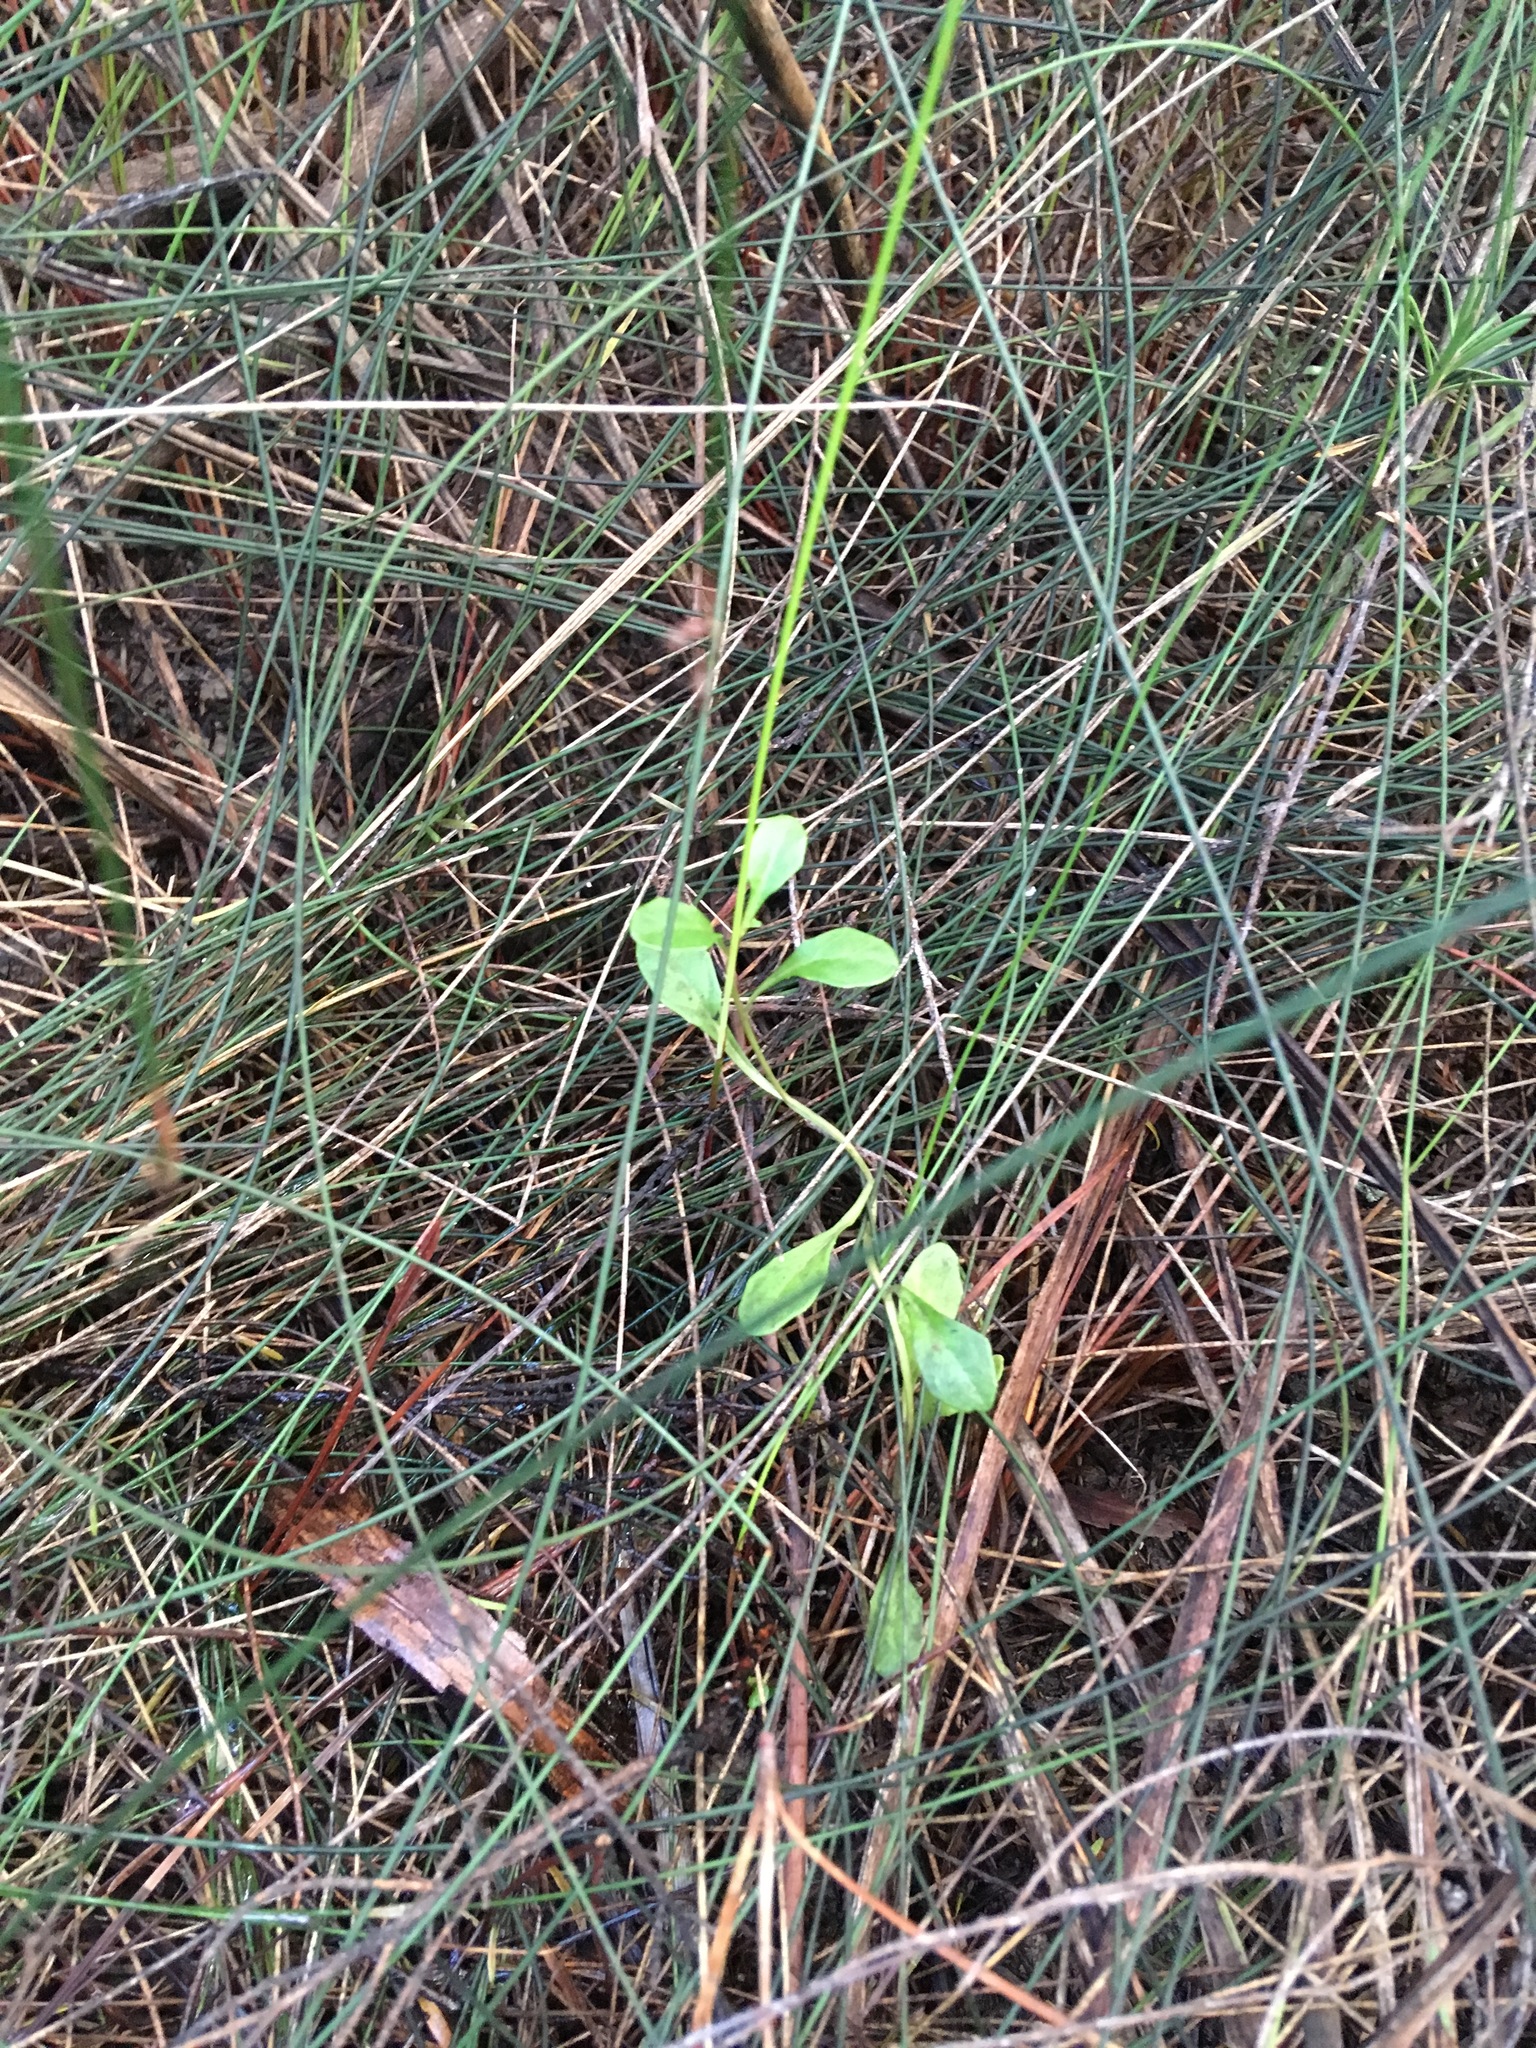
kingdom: Plantae
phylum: Tracheophyta
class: Magnoliopsida
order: Asterales
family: Campanulaceae
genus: Lobelia
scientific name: Lobelia anceps
